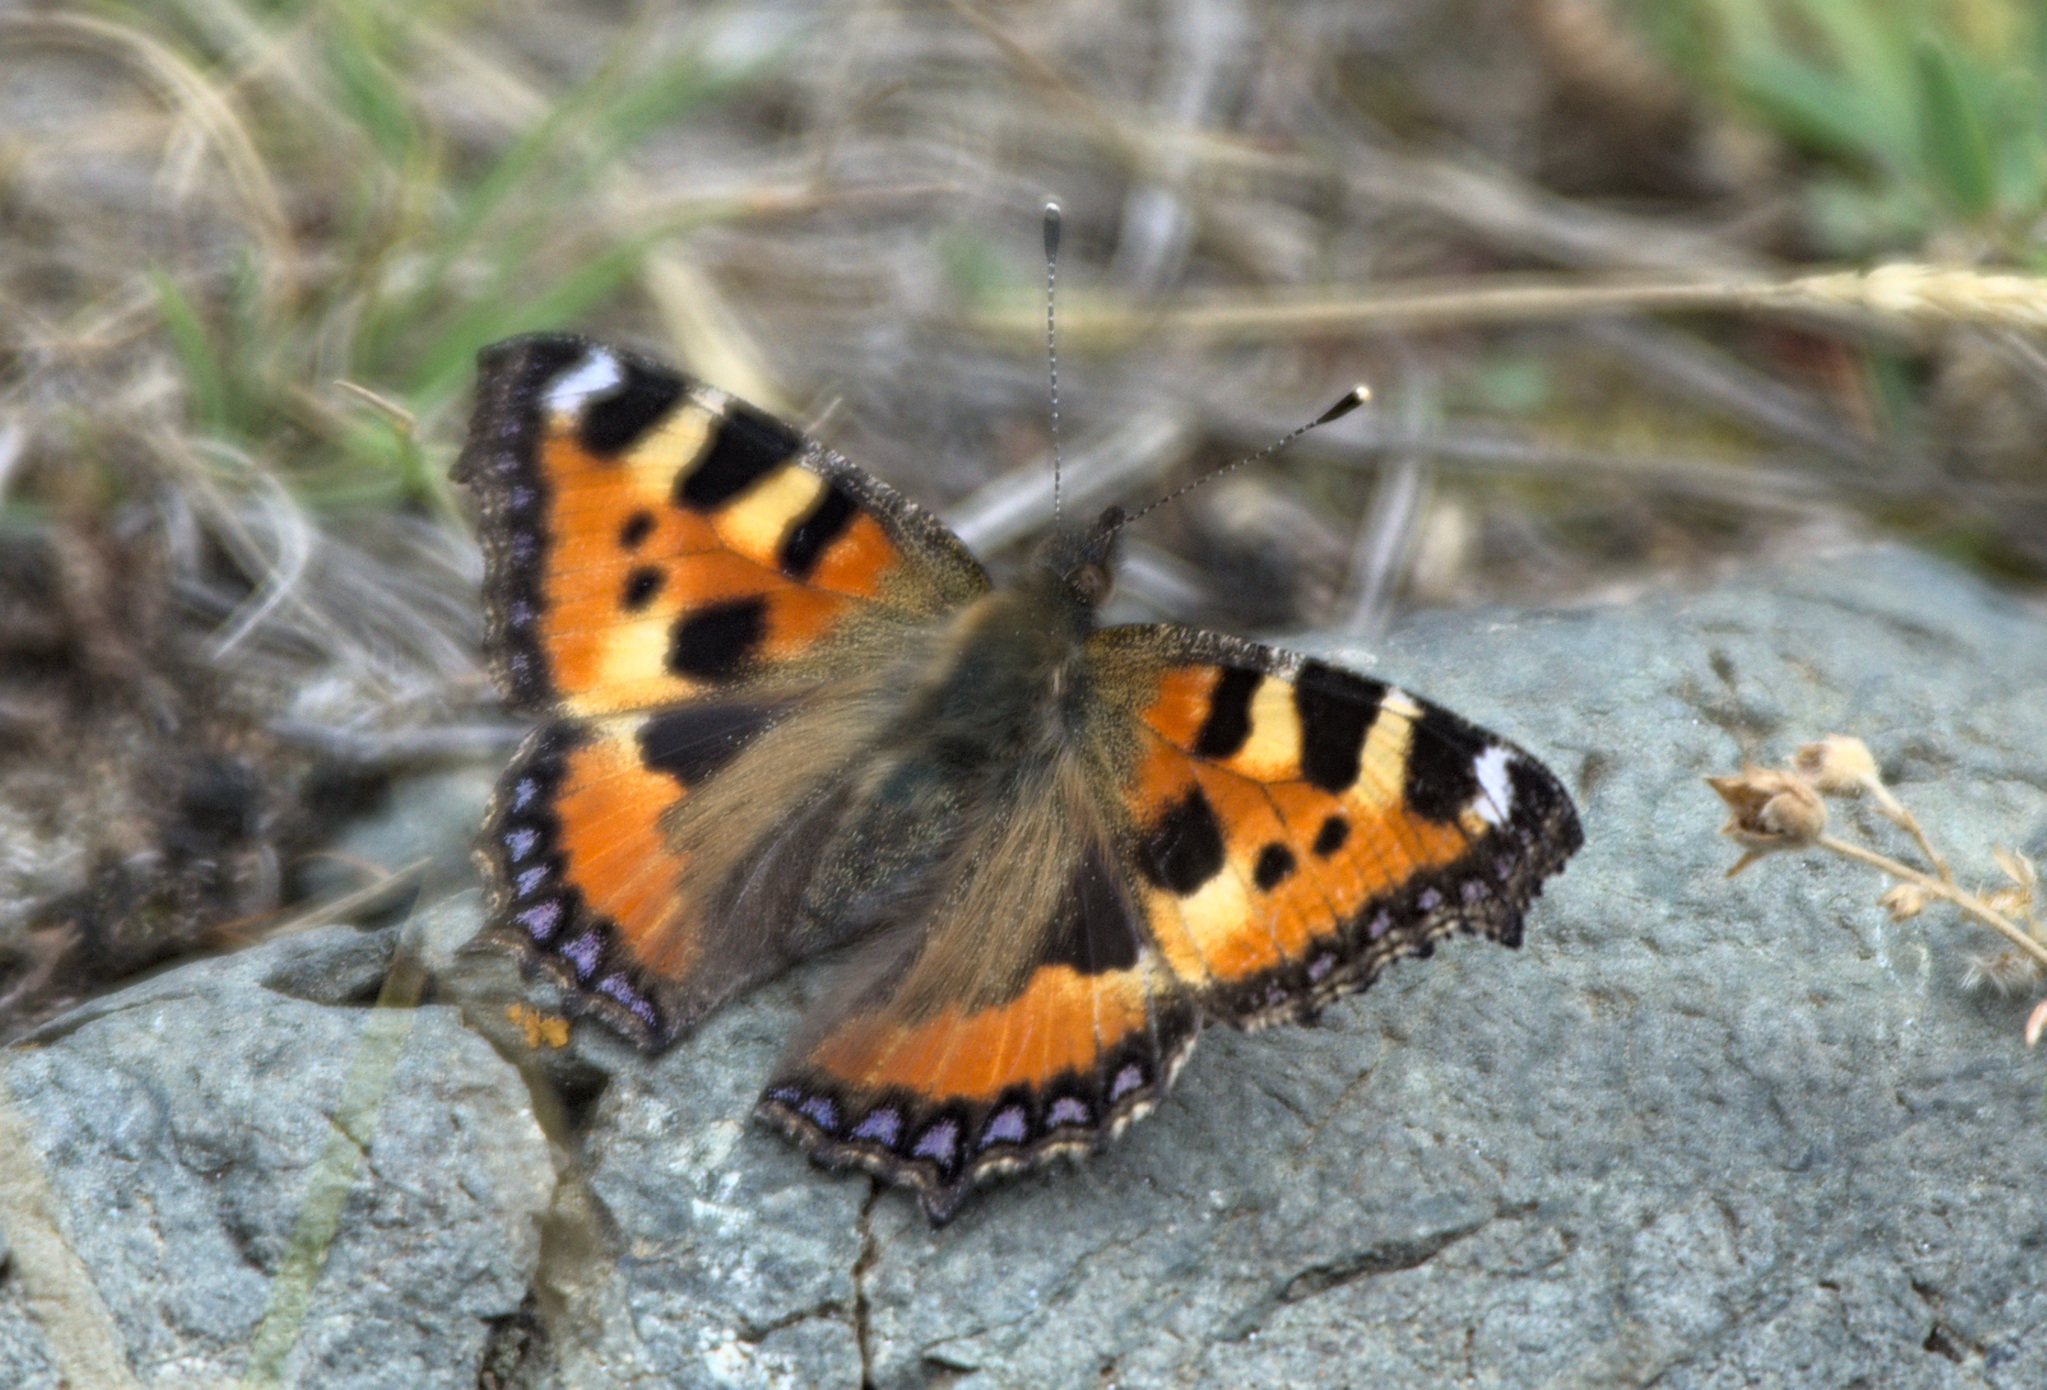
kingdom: Animalia
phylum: Arthropoda
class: Insecta
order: Lepidoptera
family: Nymphalidae
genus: Aglais
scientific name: Aglais urticae
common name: Small tortoiseshell
